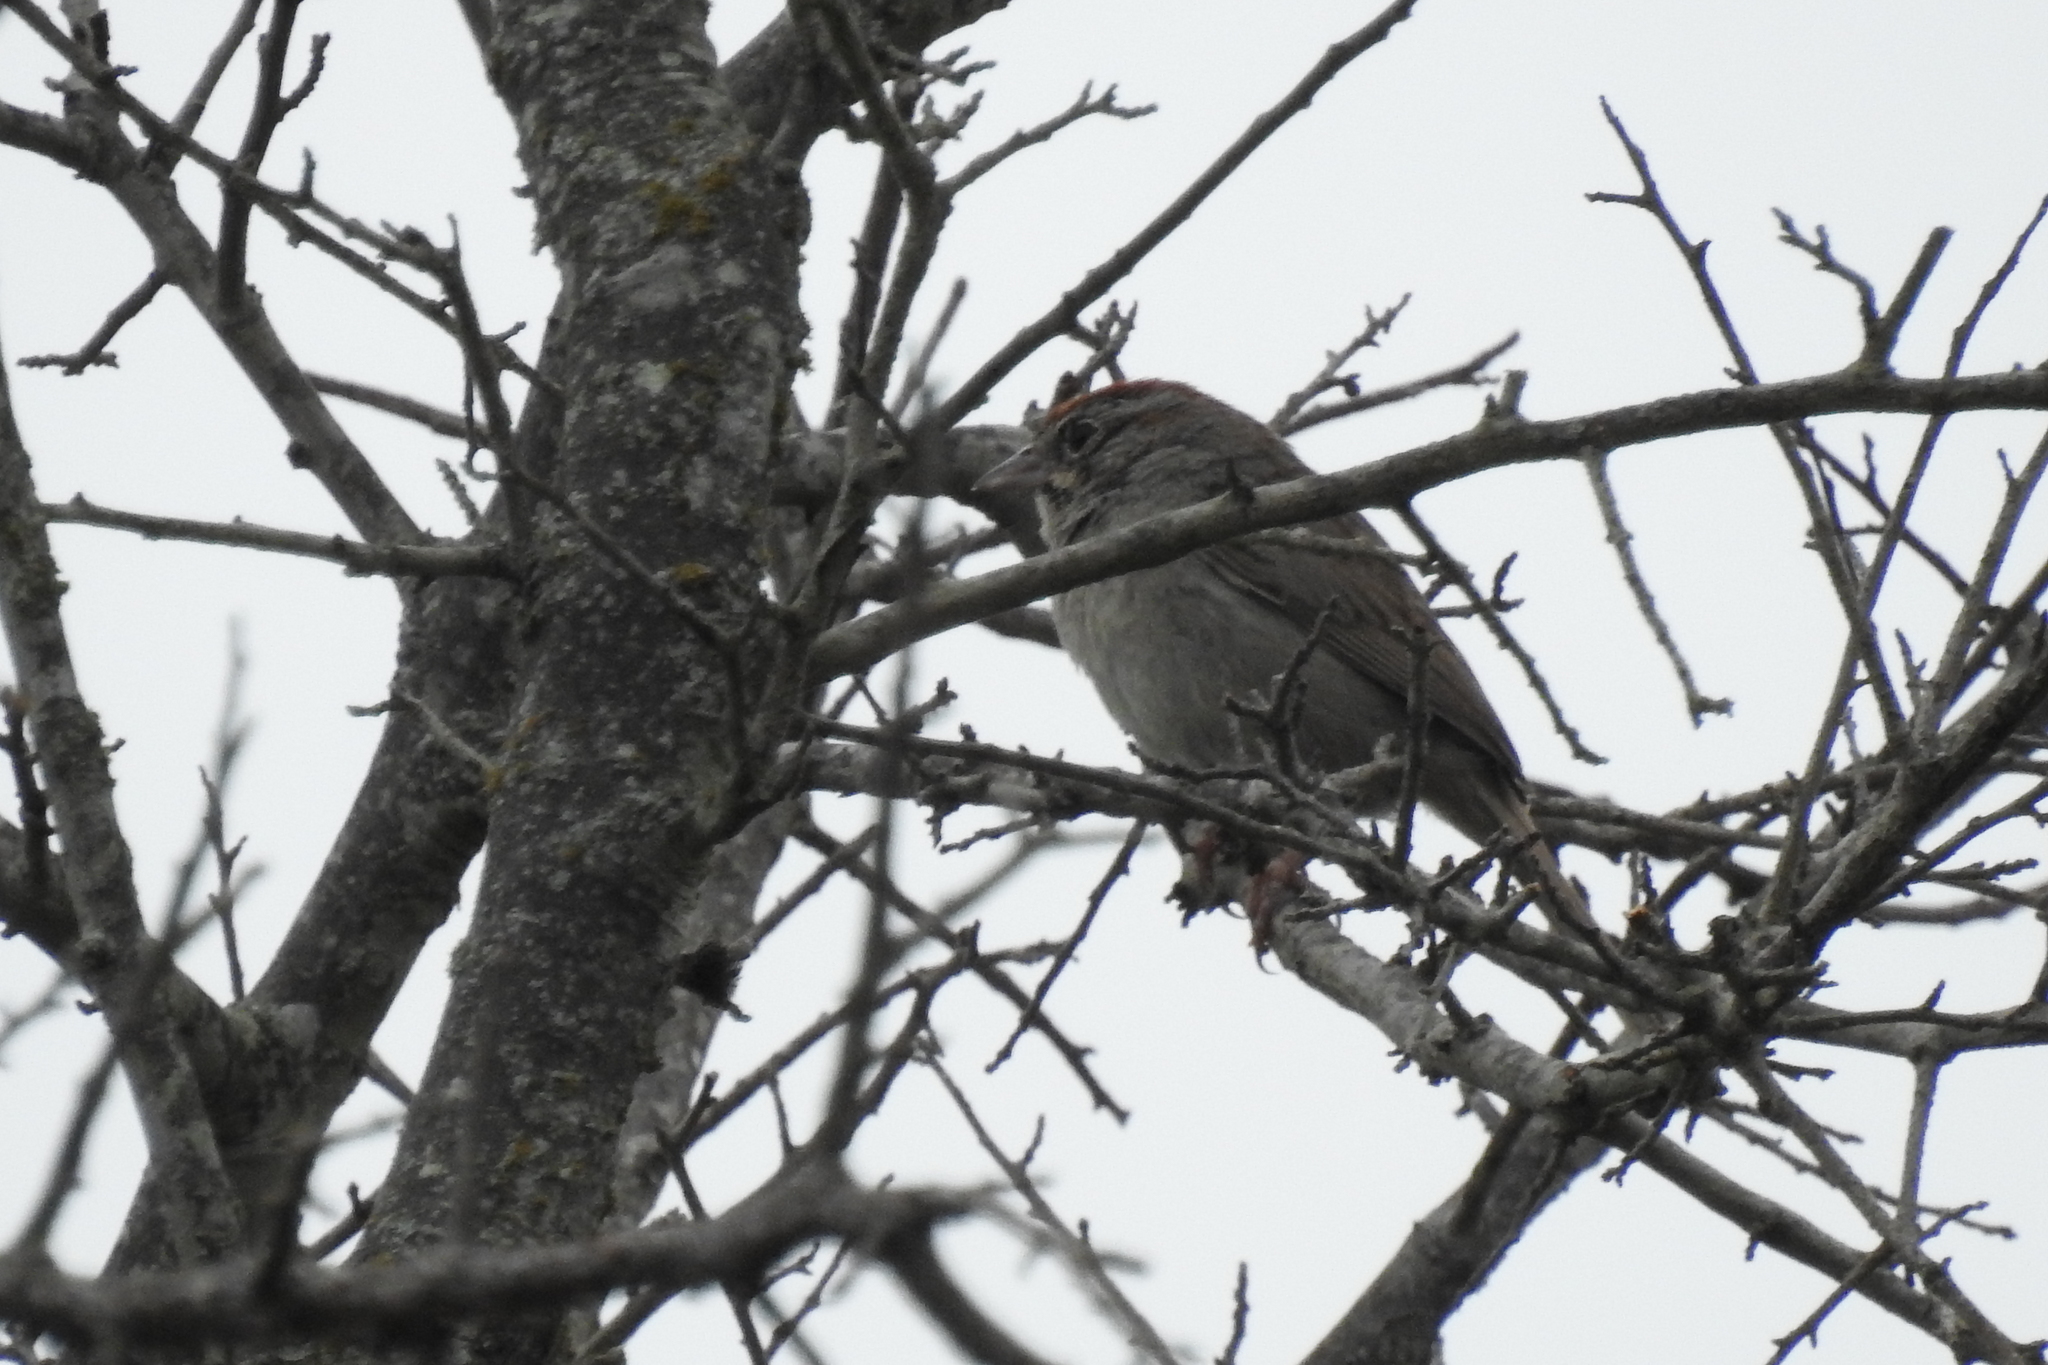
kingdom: Animalia
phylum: Chordata
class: Aves
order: Passeriformes
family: Passerellidae
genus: Aimophila
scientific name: Aimophila ruficeps
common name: Rufous-crowned sparrow
